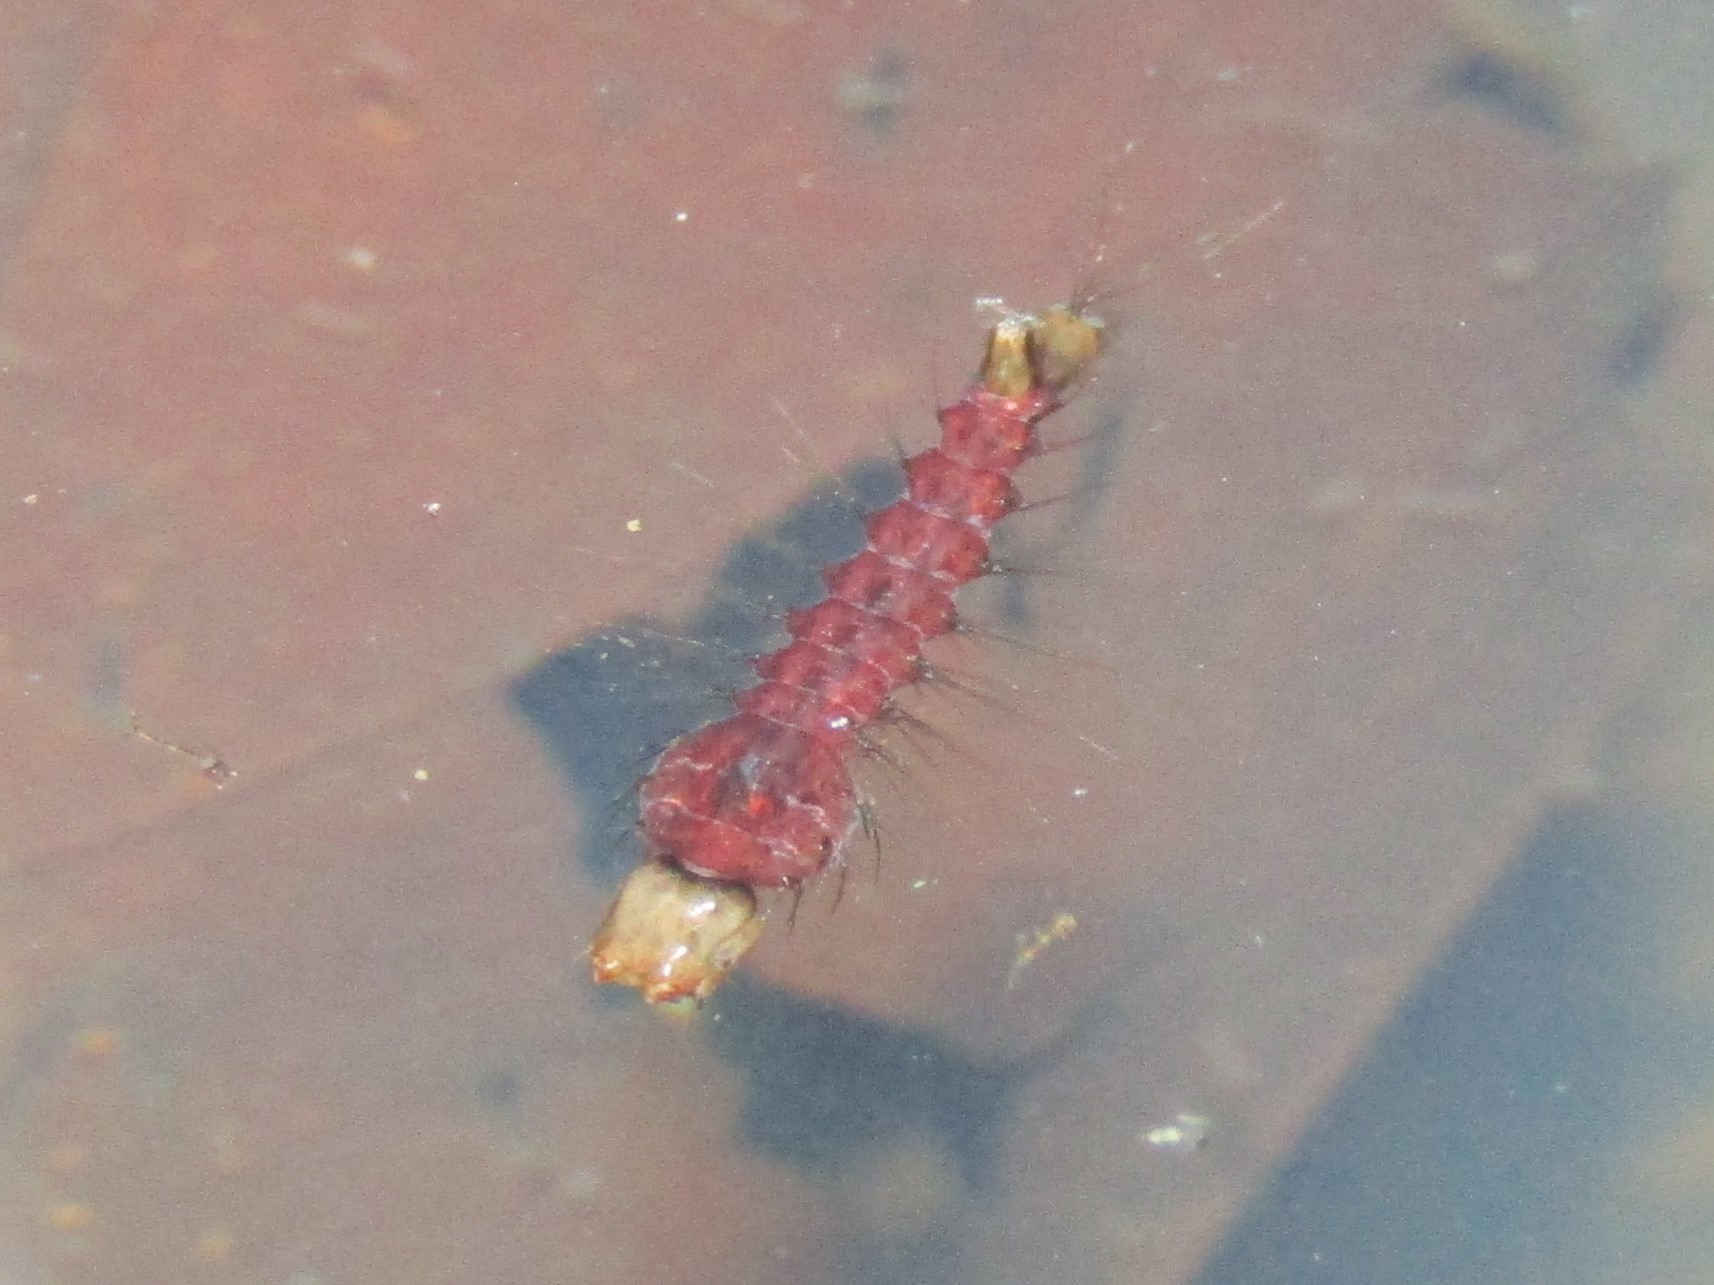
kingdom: Animalia
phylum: Arthropoda
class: Insecta
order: Diptera
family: Culicidae
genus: Toxorhynchites
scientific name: Toxorhynchites rutilus
